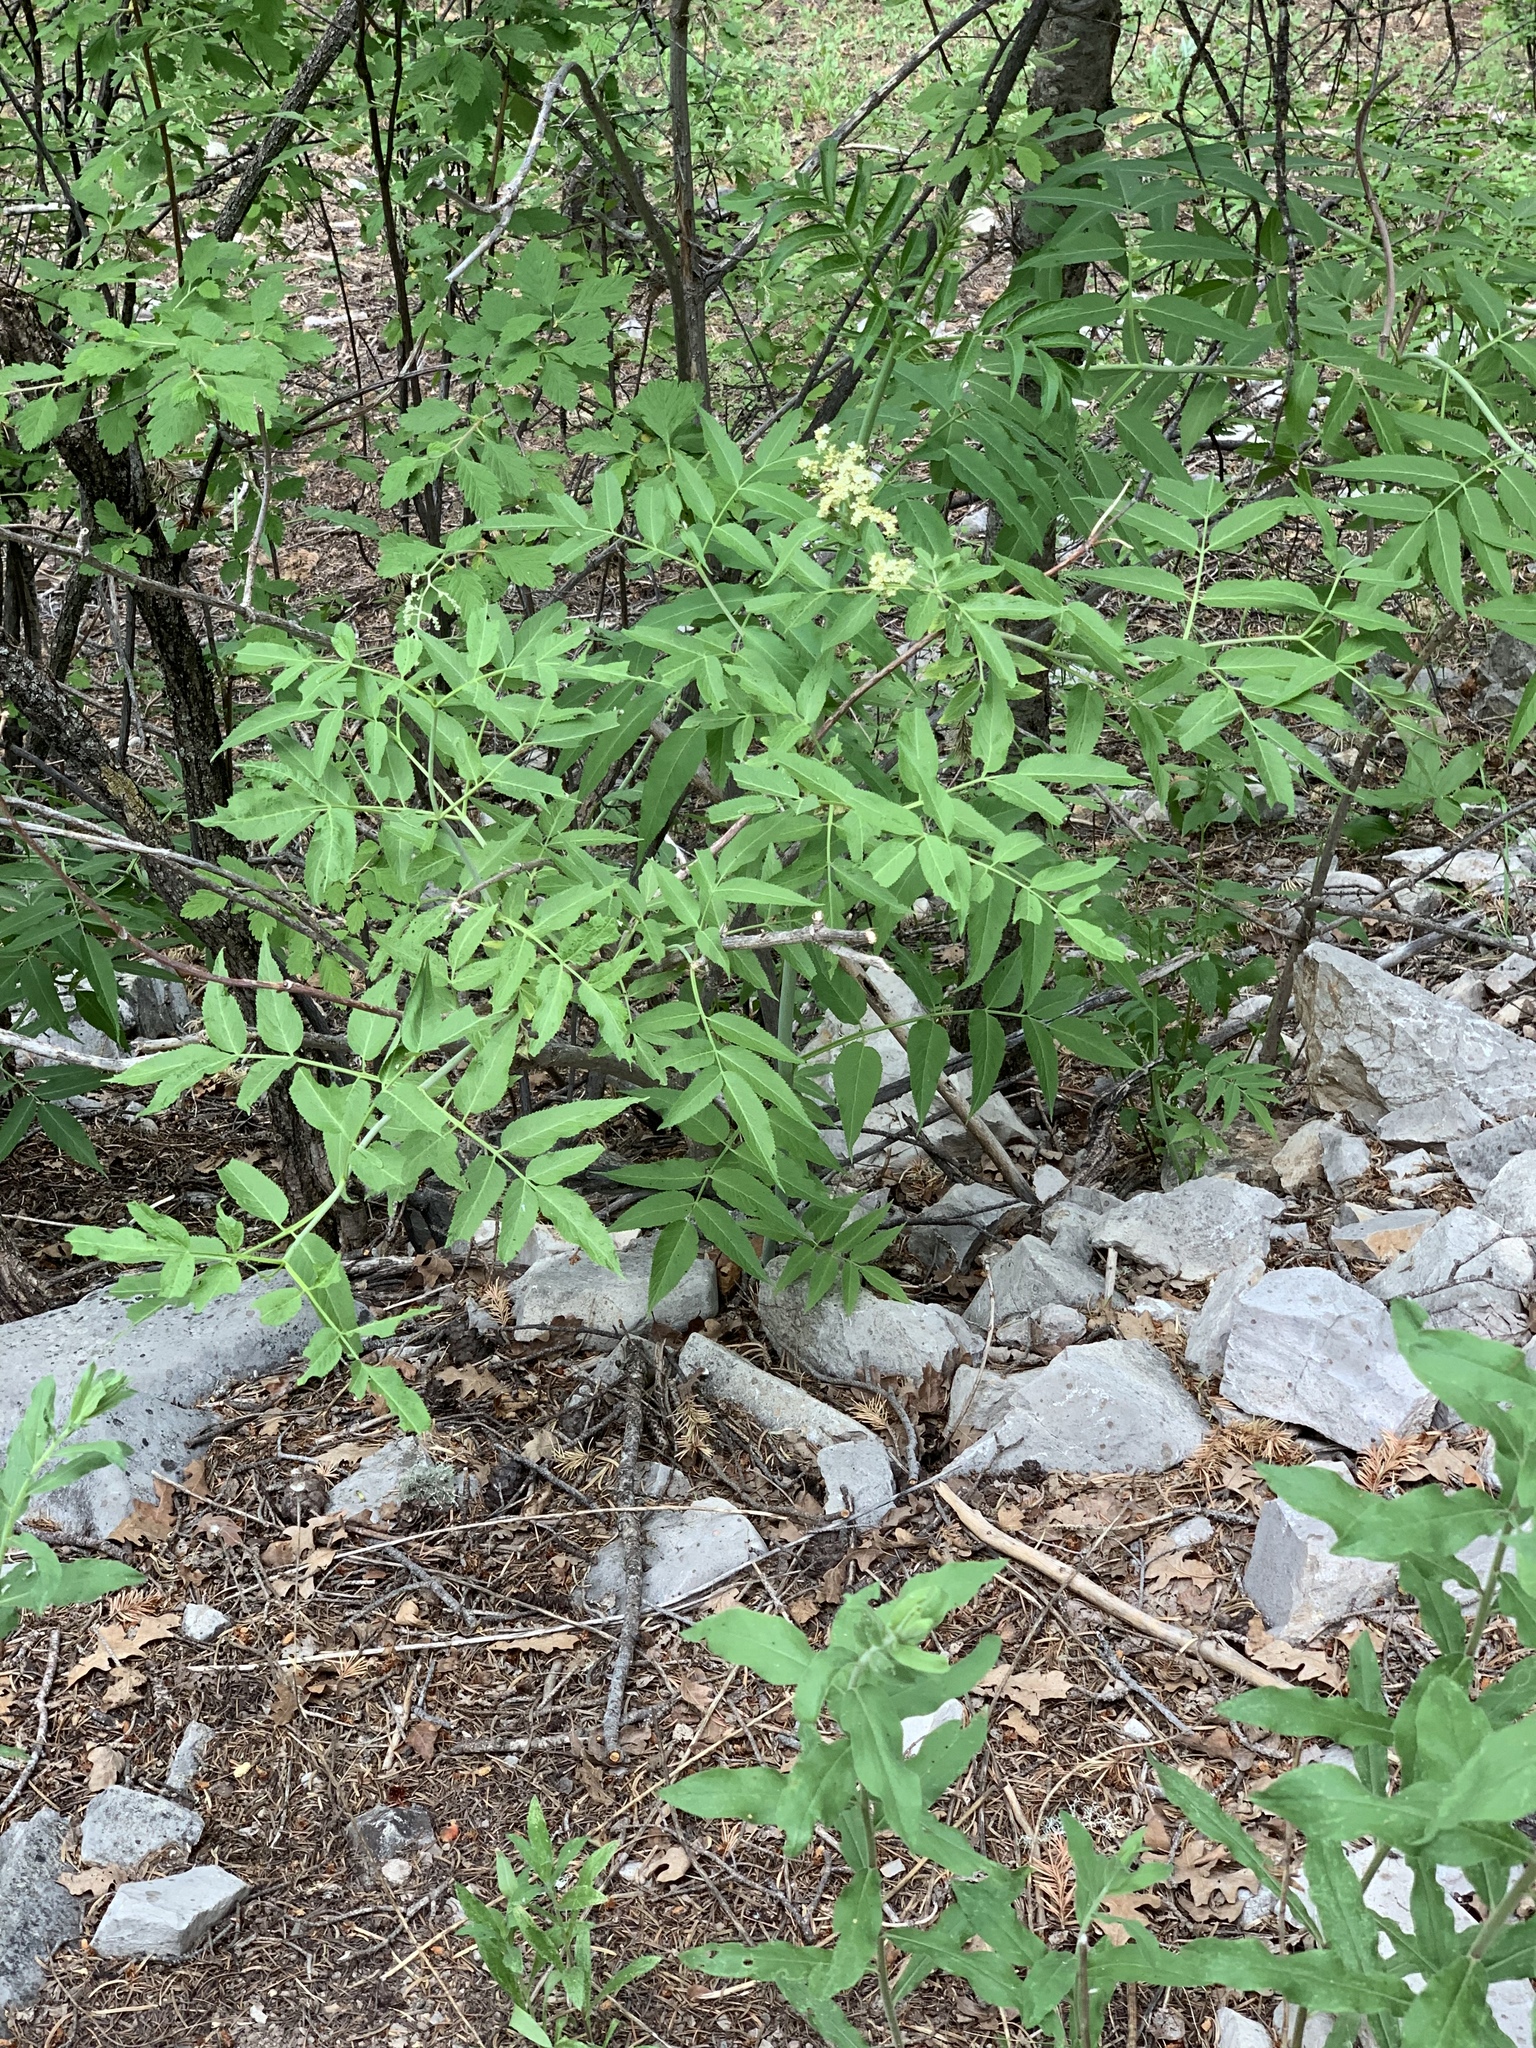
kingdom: Plantae
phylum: Tracheophyta
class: Magnoliopsida
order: Dipsacales
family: Viburnaceae
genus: Sambucus
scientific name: Sambucus cerulea
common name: Blue elder
